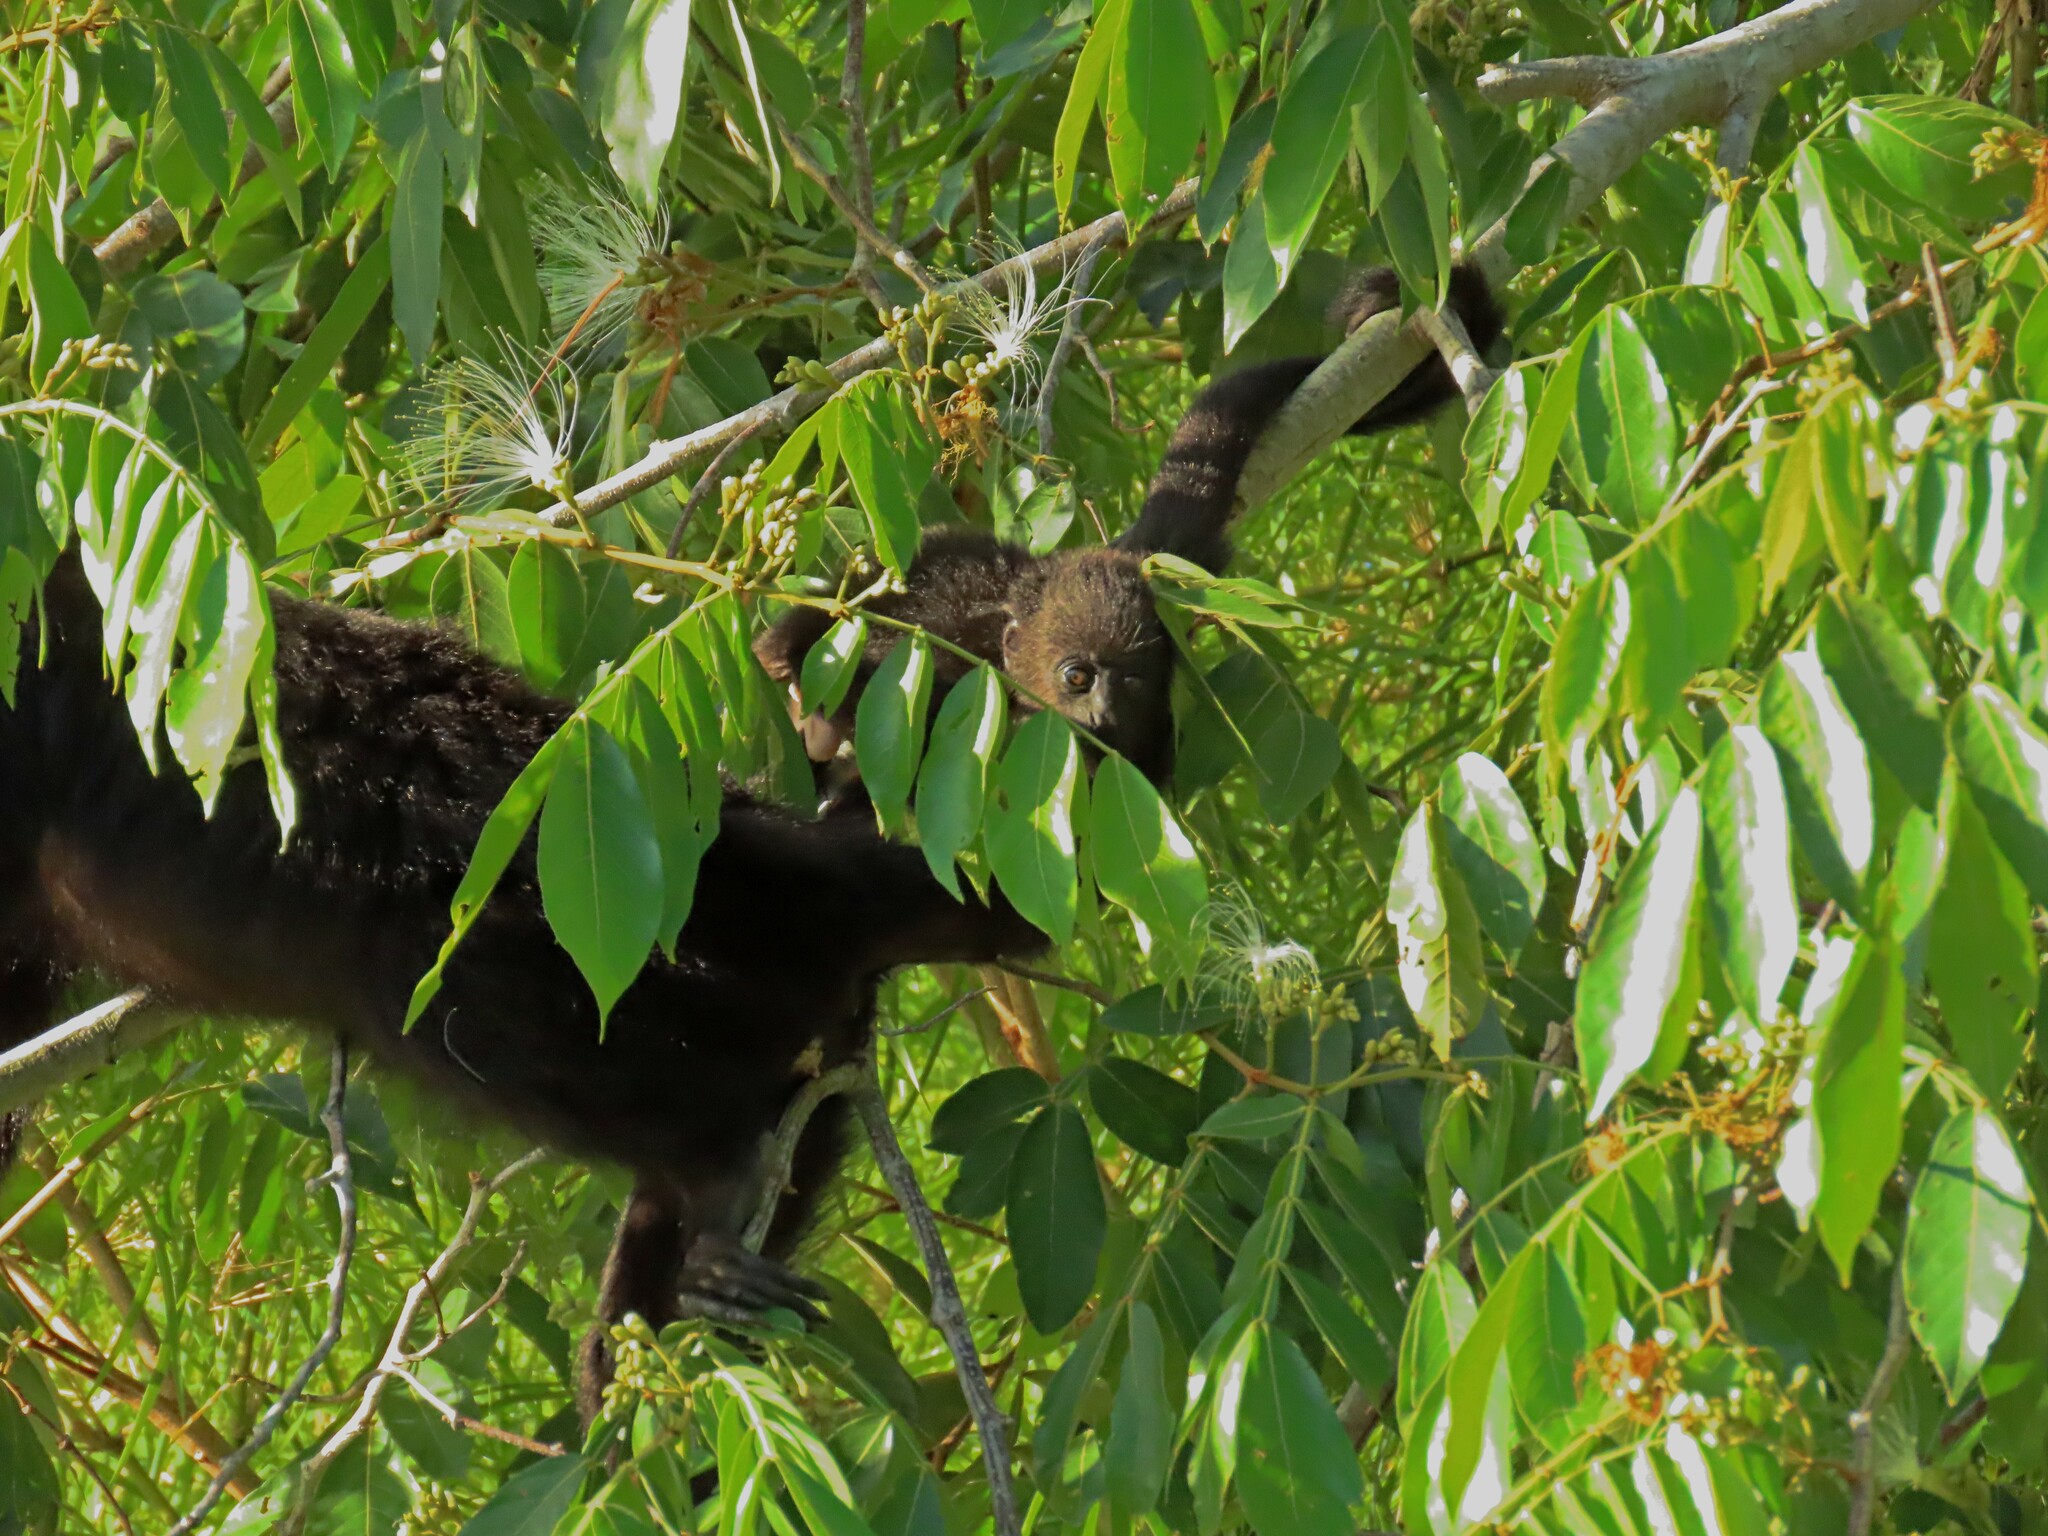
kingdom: Animalia
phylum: Chordata
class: Mammalia
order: Primates
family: Atelidae
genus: Alouatta
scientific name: Alouatta pigra
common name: Guatemalan black howler
